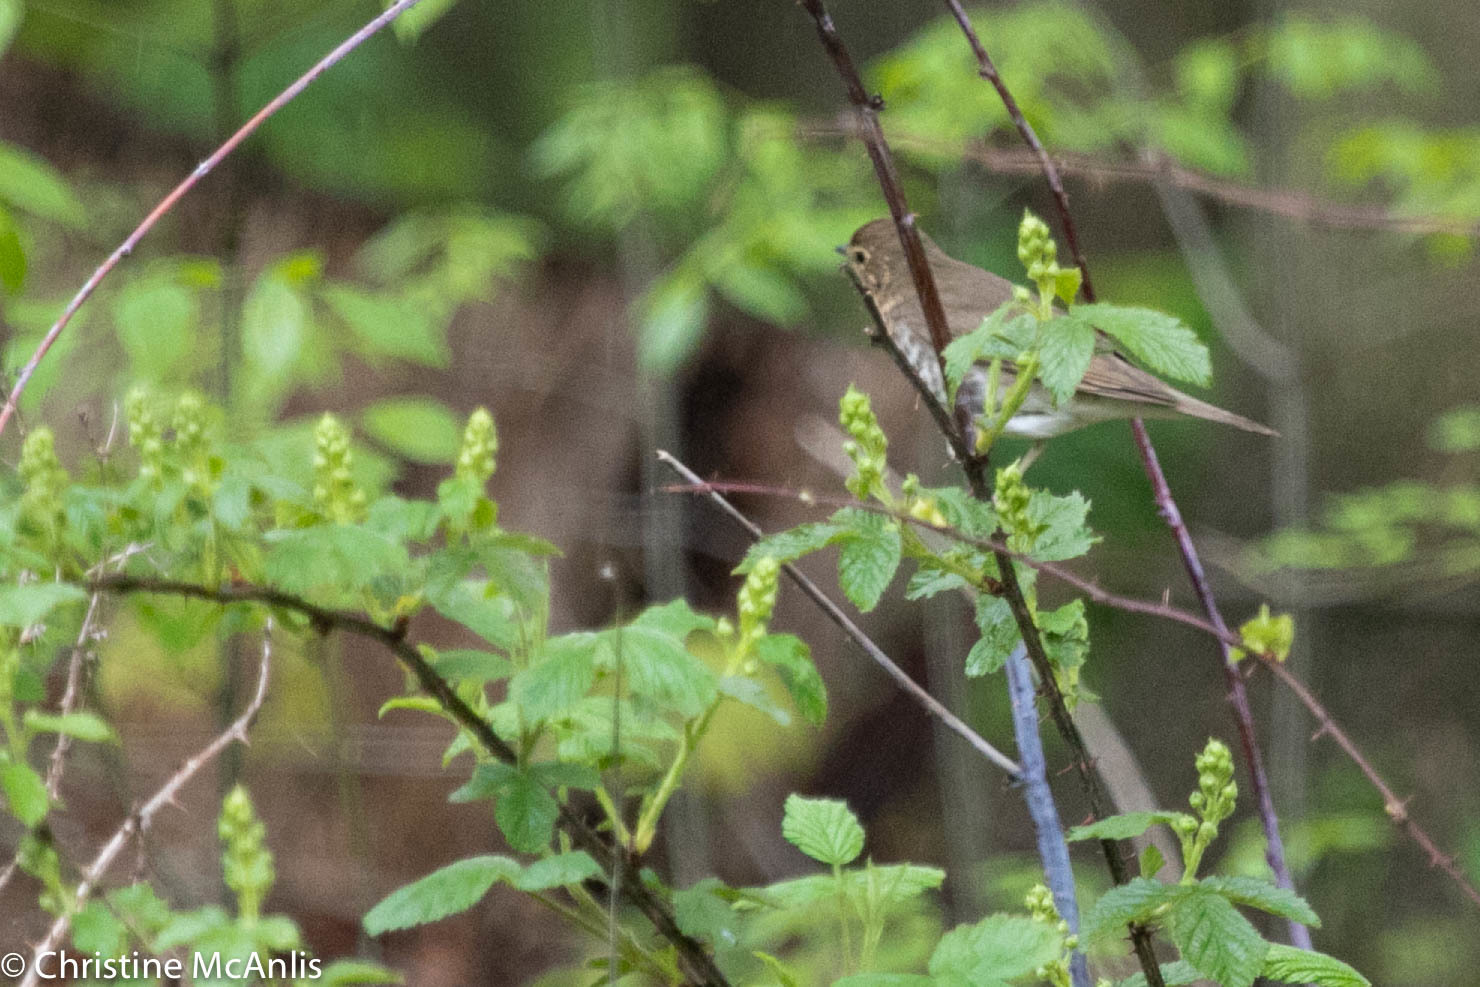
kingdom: Animalia
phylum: Chordata
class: Aves
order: Passeriformes
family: Turdidae
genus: Catharus
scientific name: Catharus ustulatus
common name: Swainson's thrush
